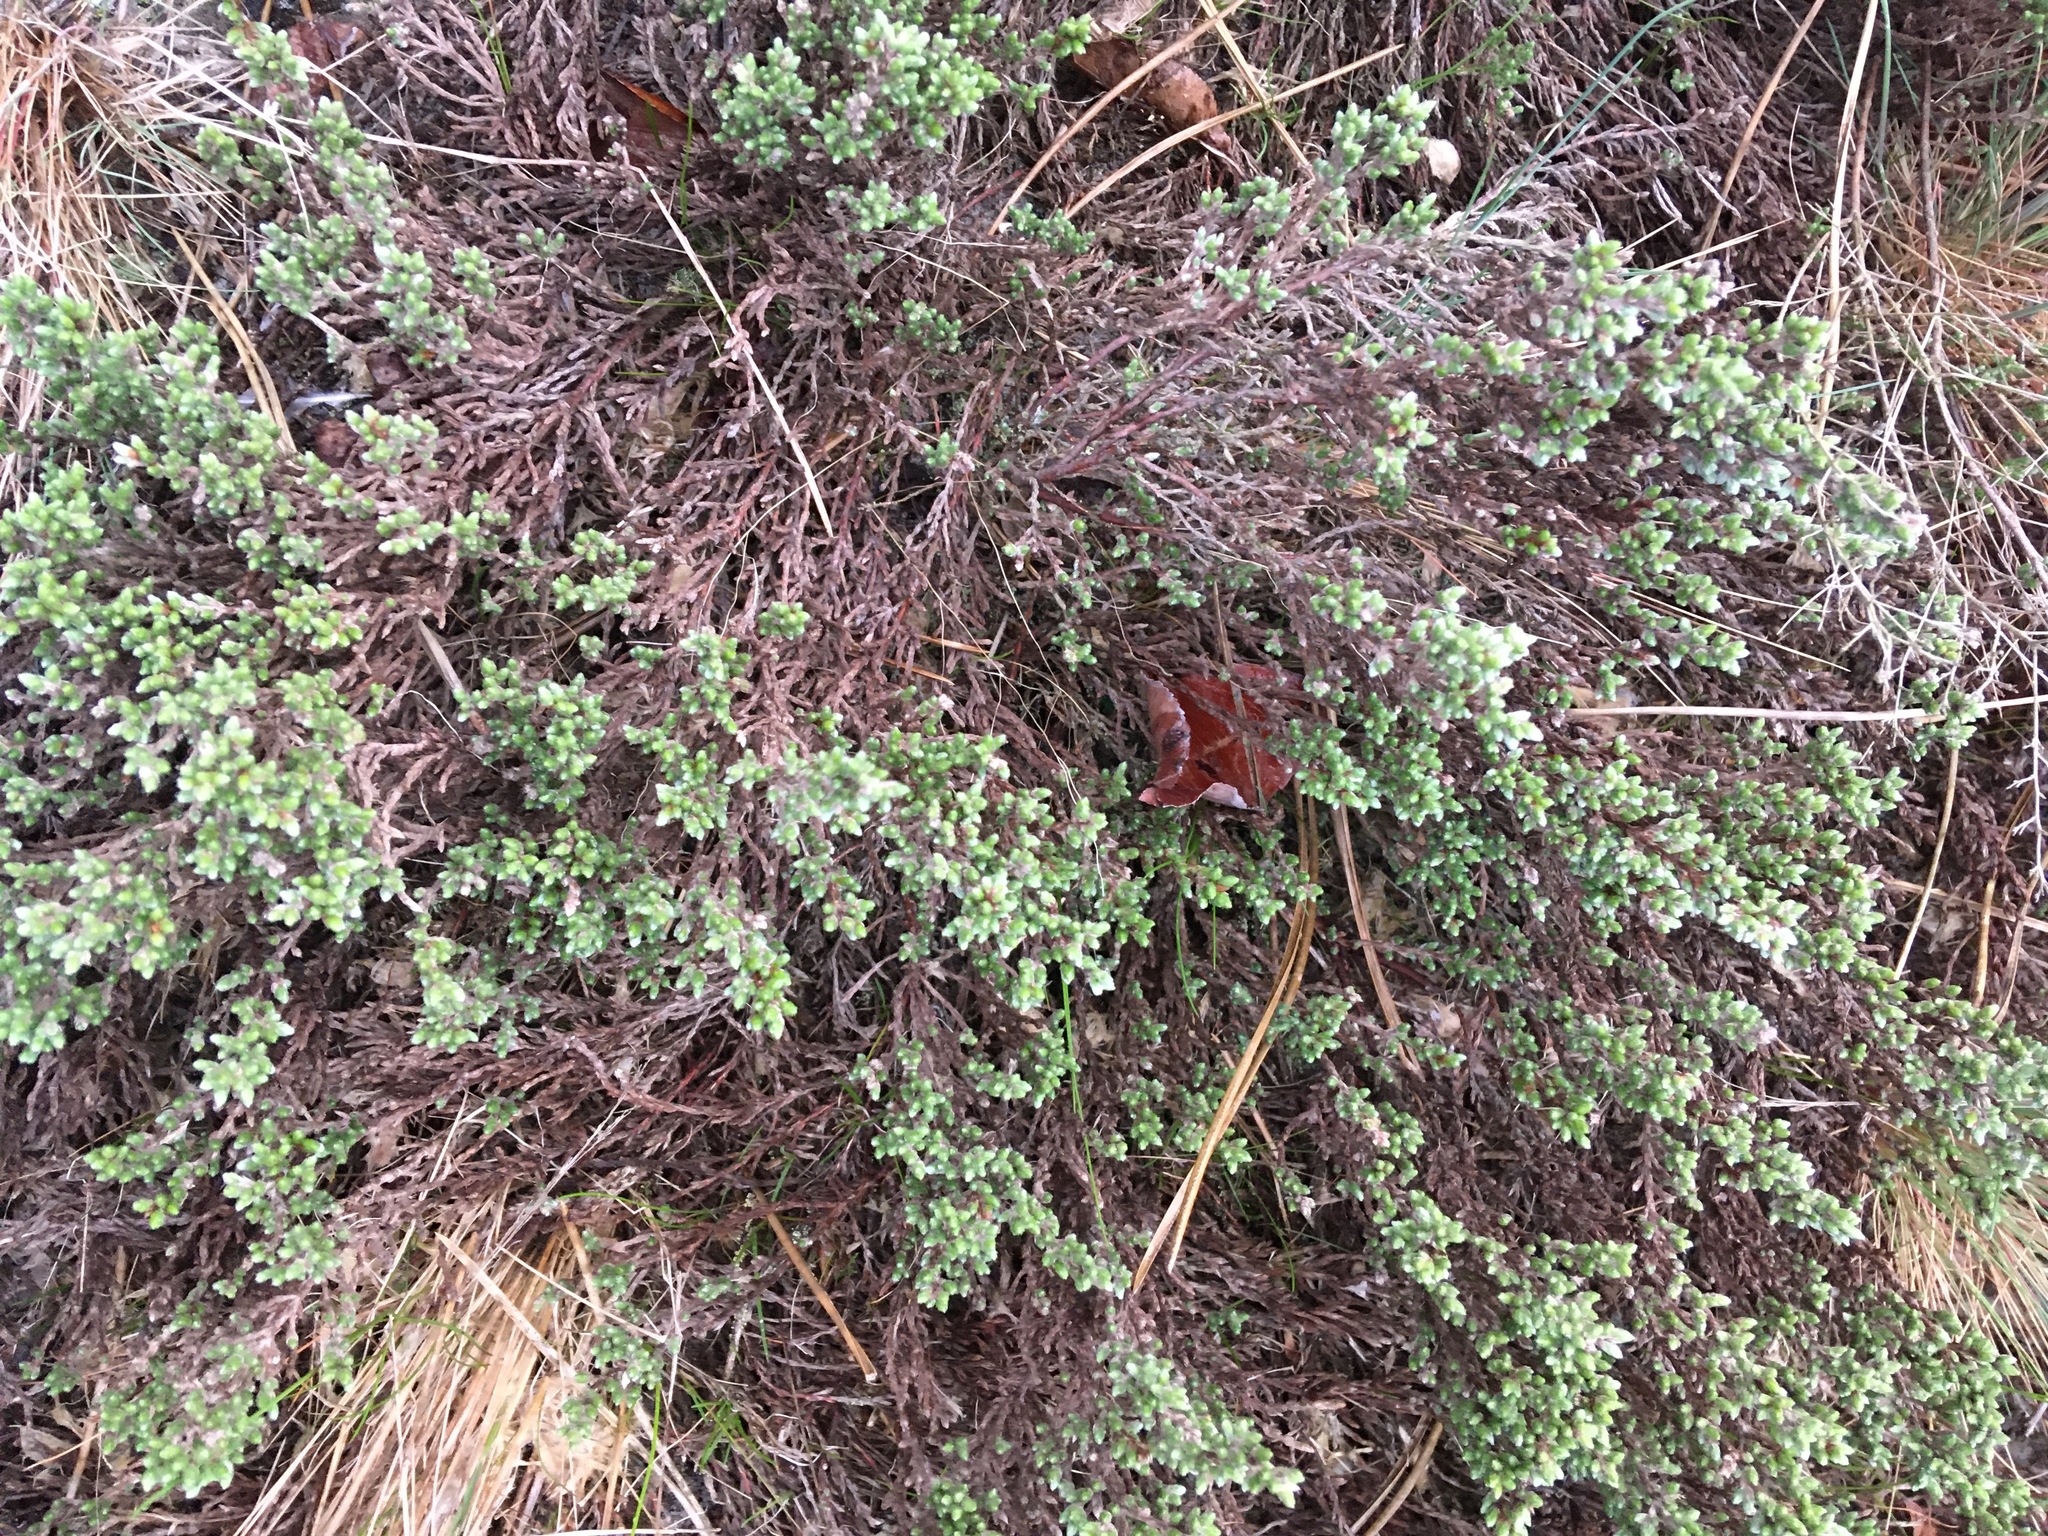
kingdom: Plantae
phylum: Tracheophyta
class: Magnoliopsida
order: Malvales
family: Cistaceae
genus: Hudsonia
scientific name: Hudsonia tomentosa
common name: Beach-heath
